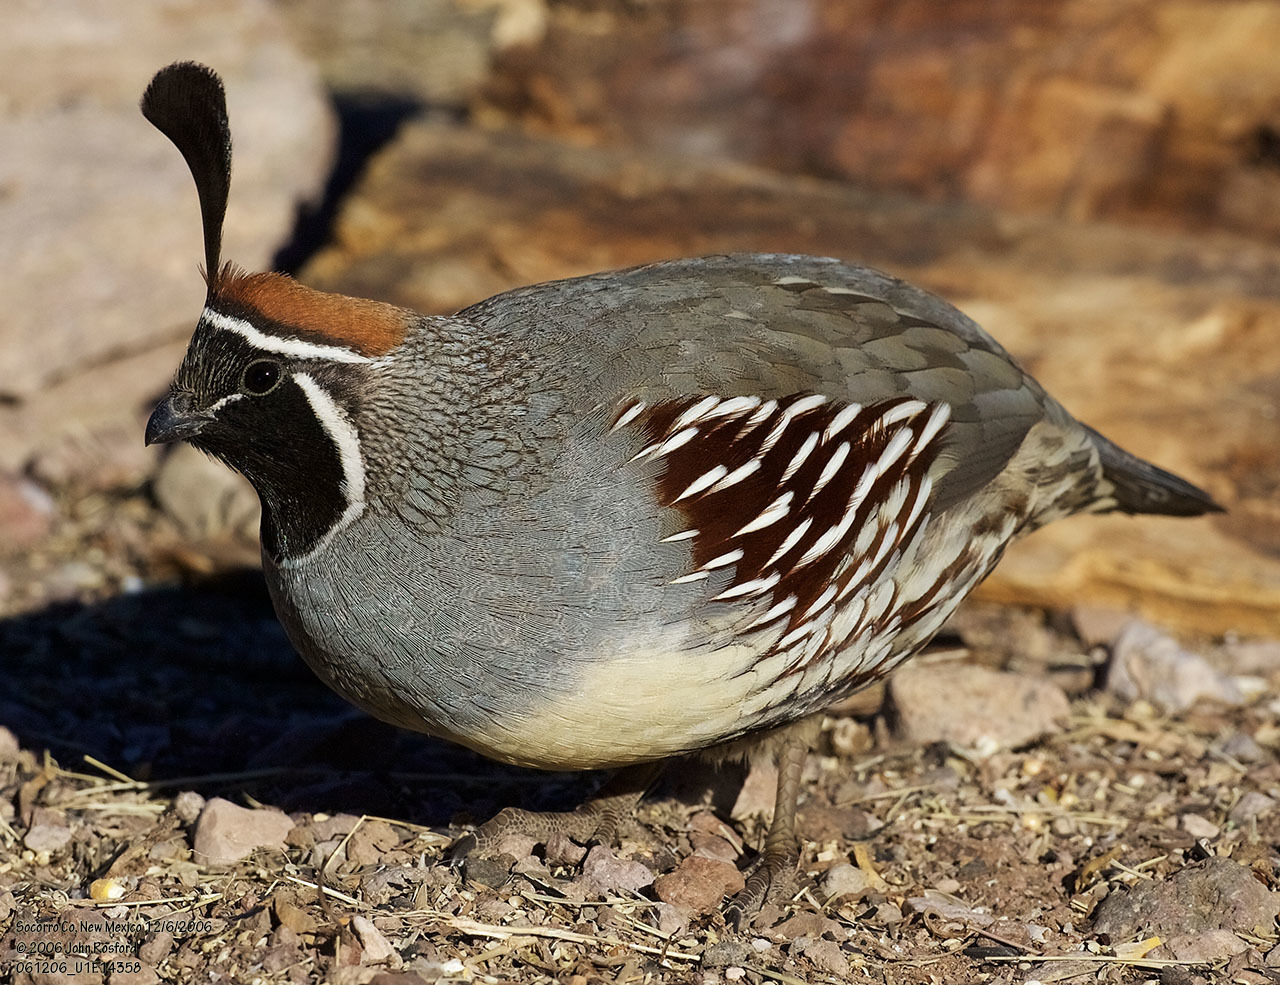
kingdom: Animalia
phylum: Chordata
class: Aves
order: Galliformes
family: Odontophoridae
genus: Callipepla
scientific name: Callipepla gambelii
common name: Gambel's quail
